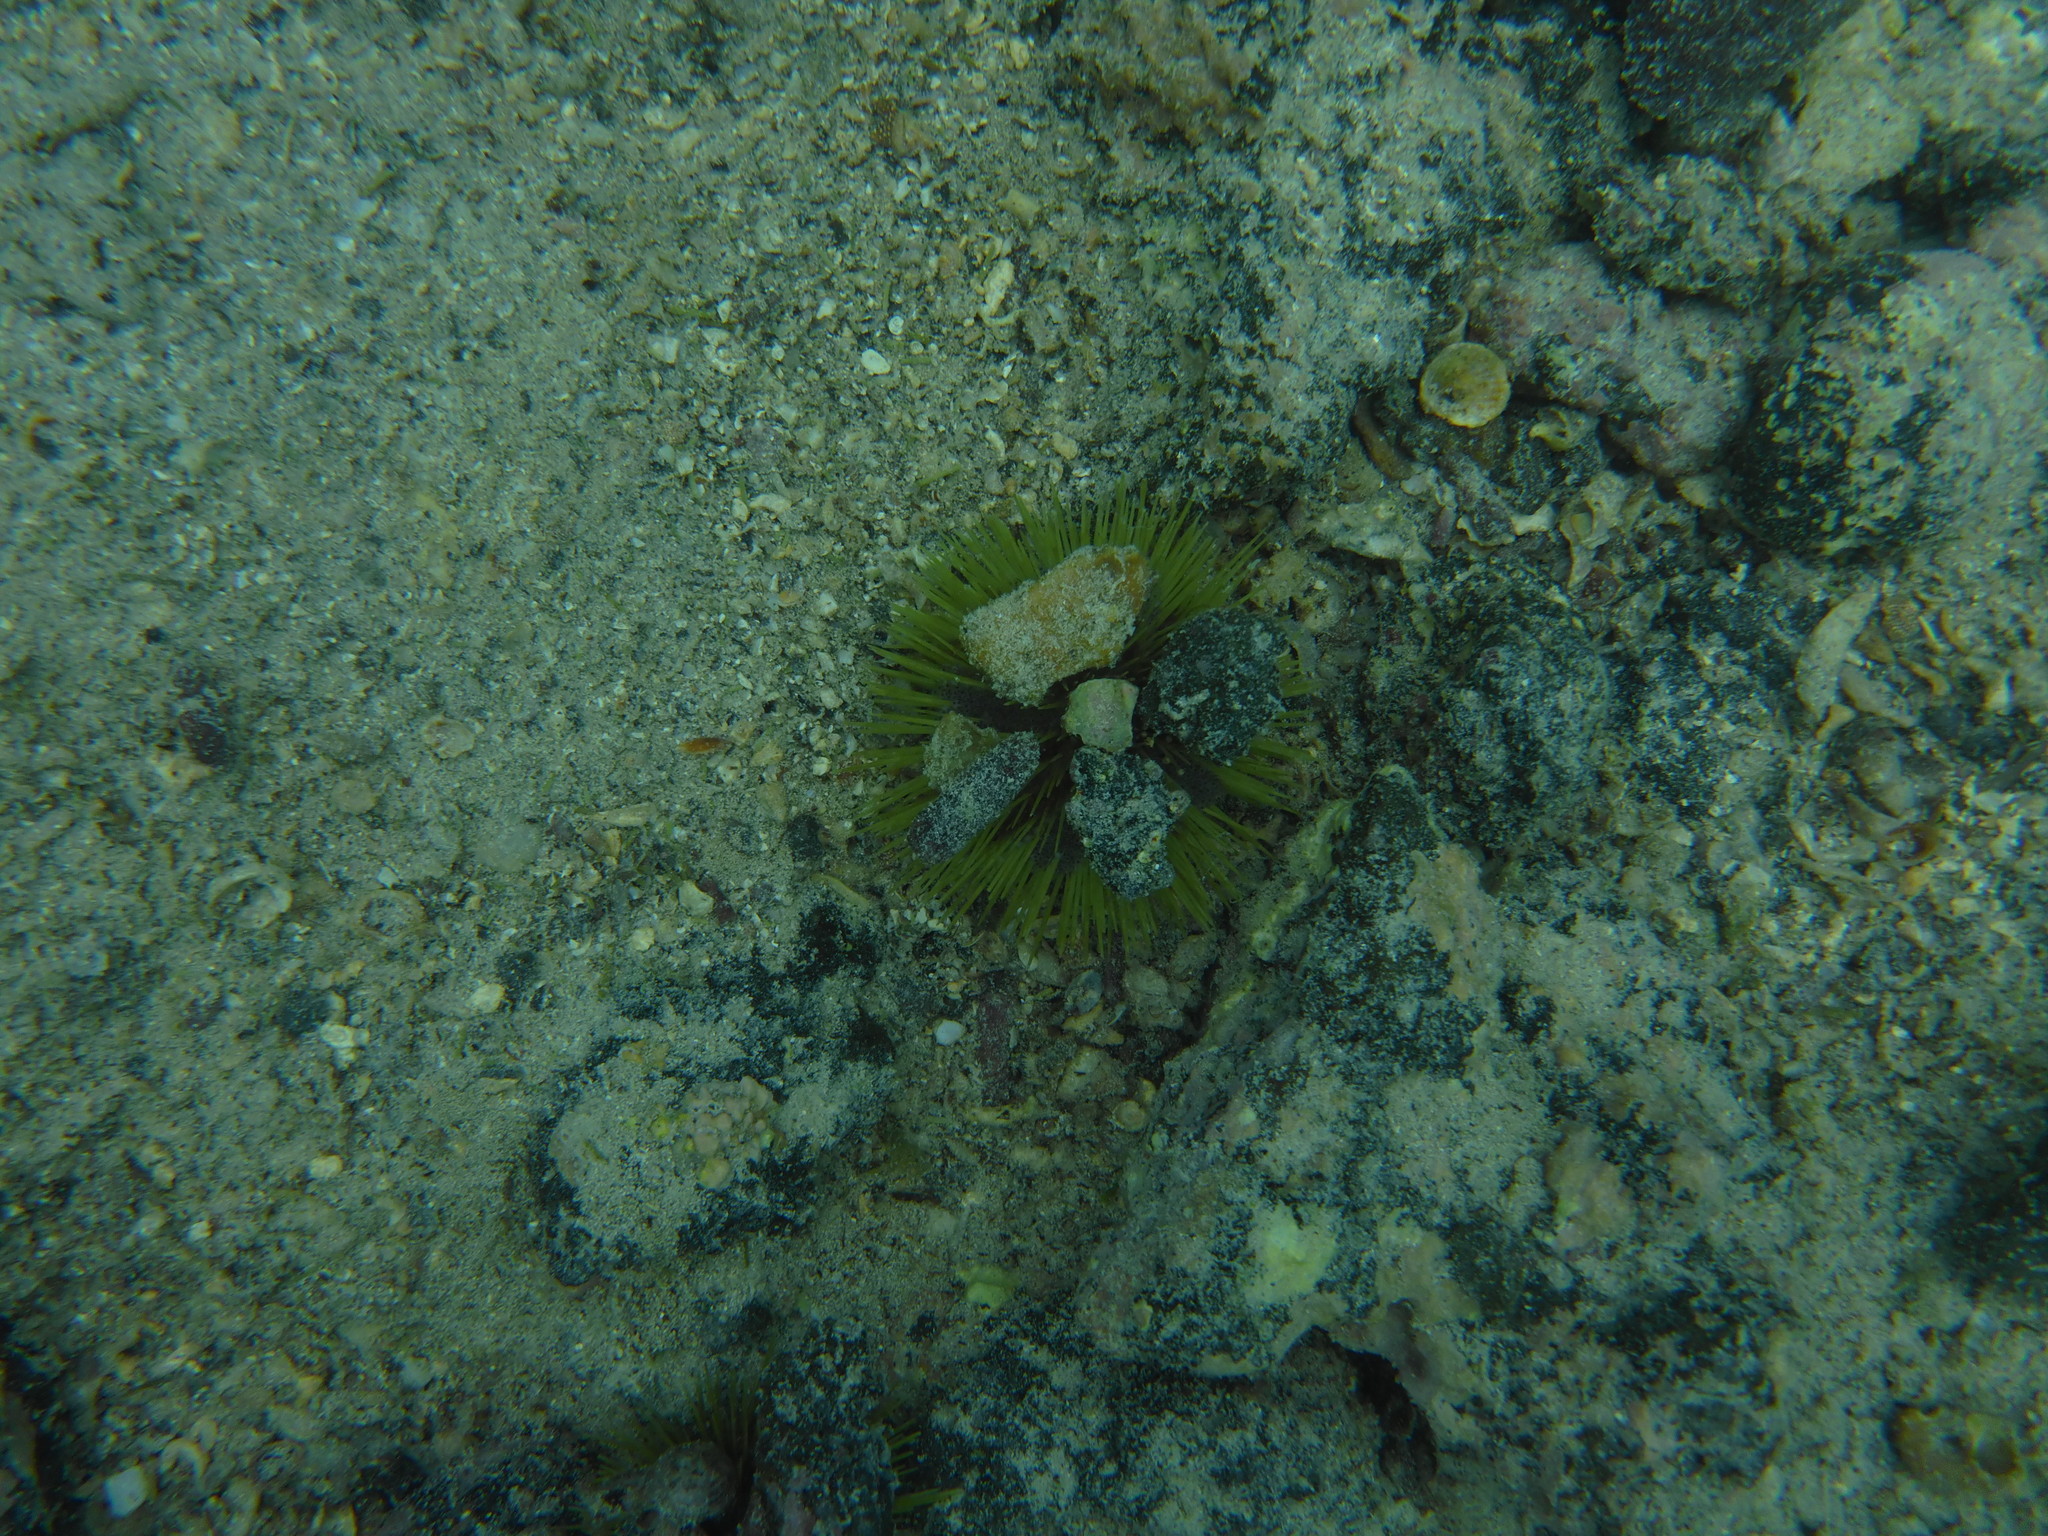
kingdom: Animalia
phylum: Echinodermata
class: Echinoidea
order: Camarodonta
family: Toxopneustidae
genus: Lytechinus
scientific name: Lytechinus semituberculatus
